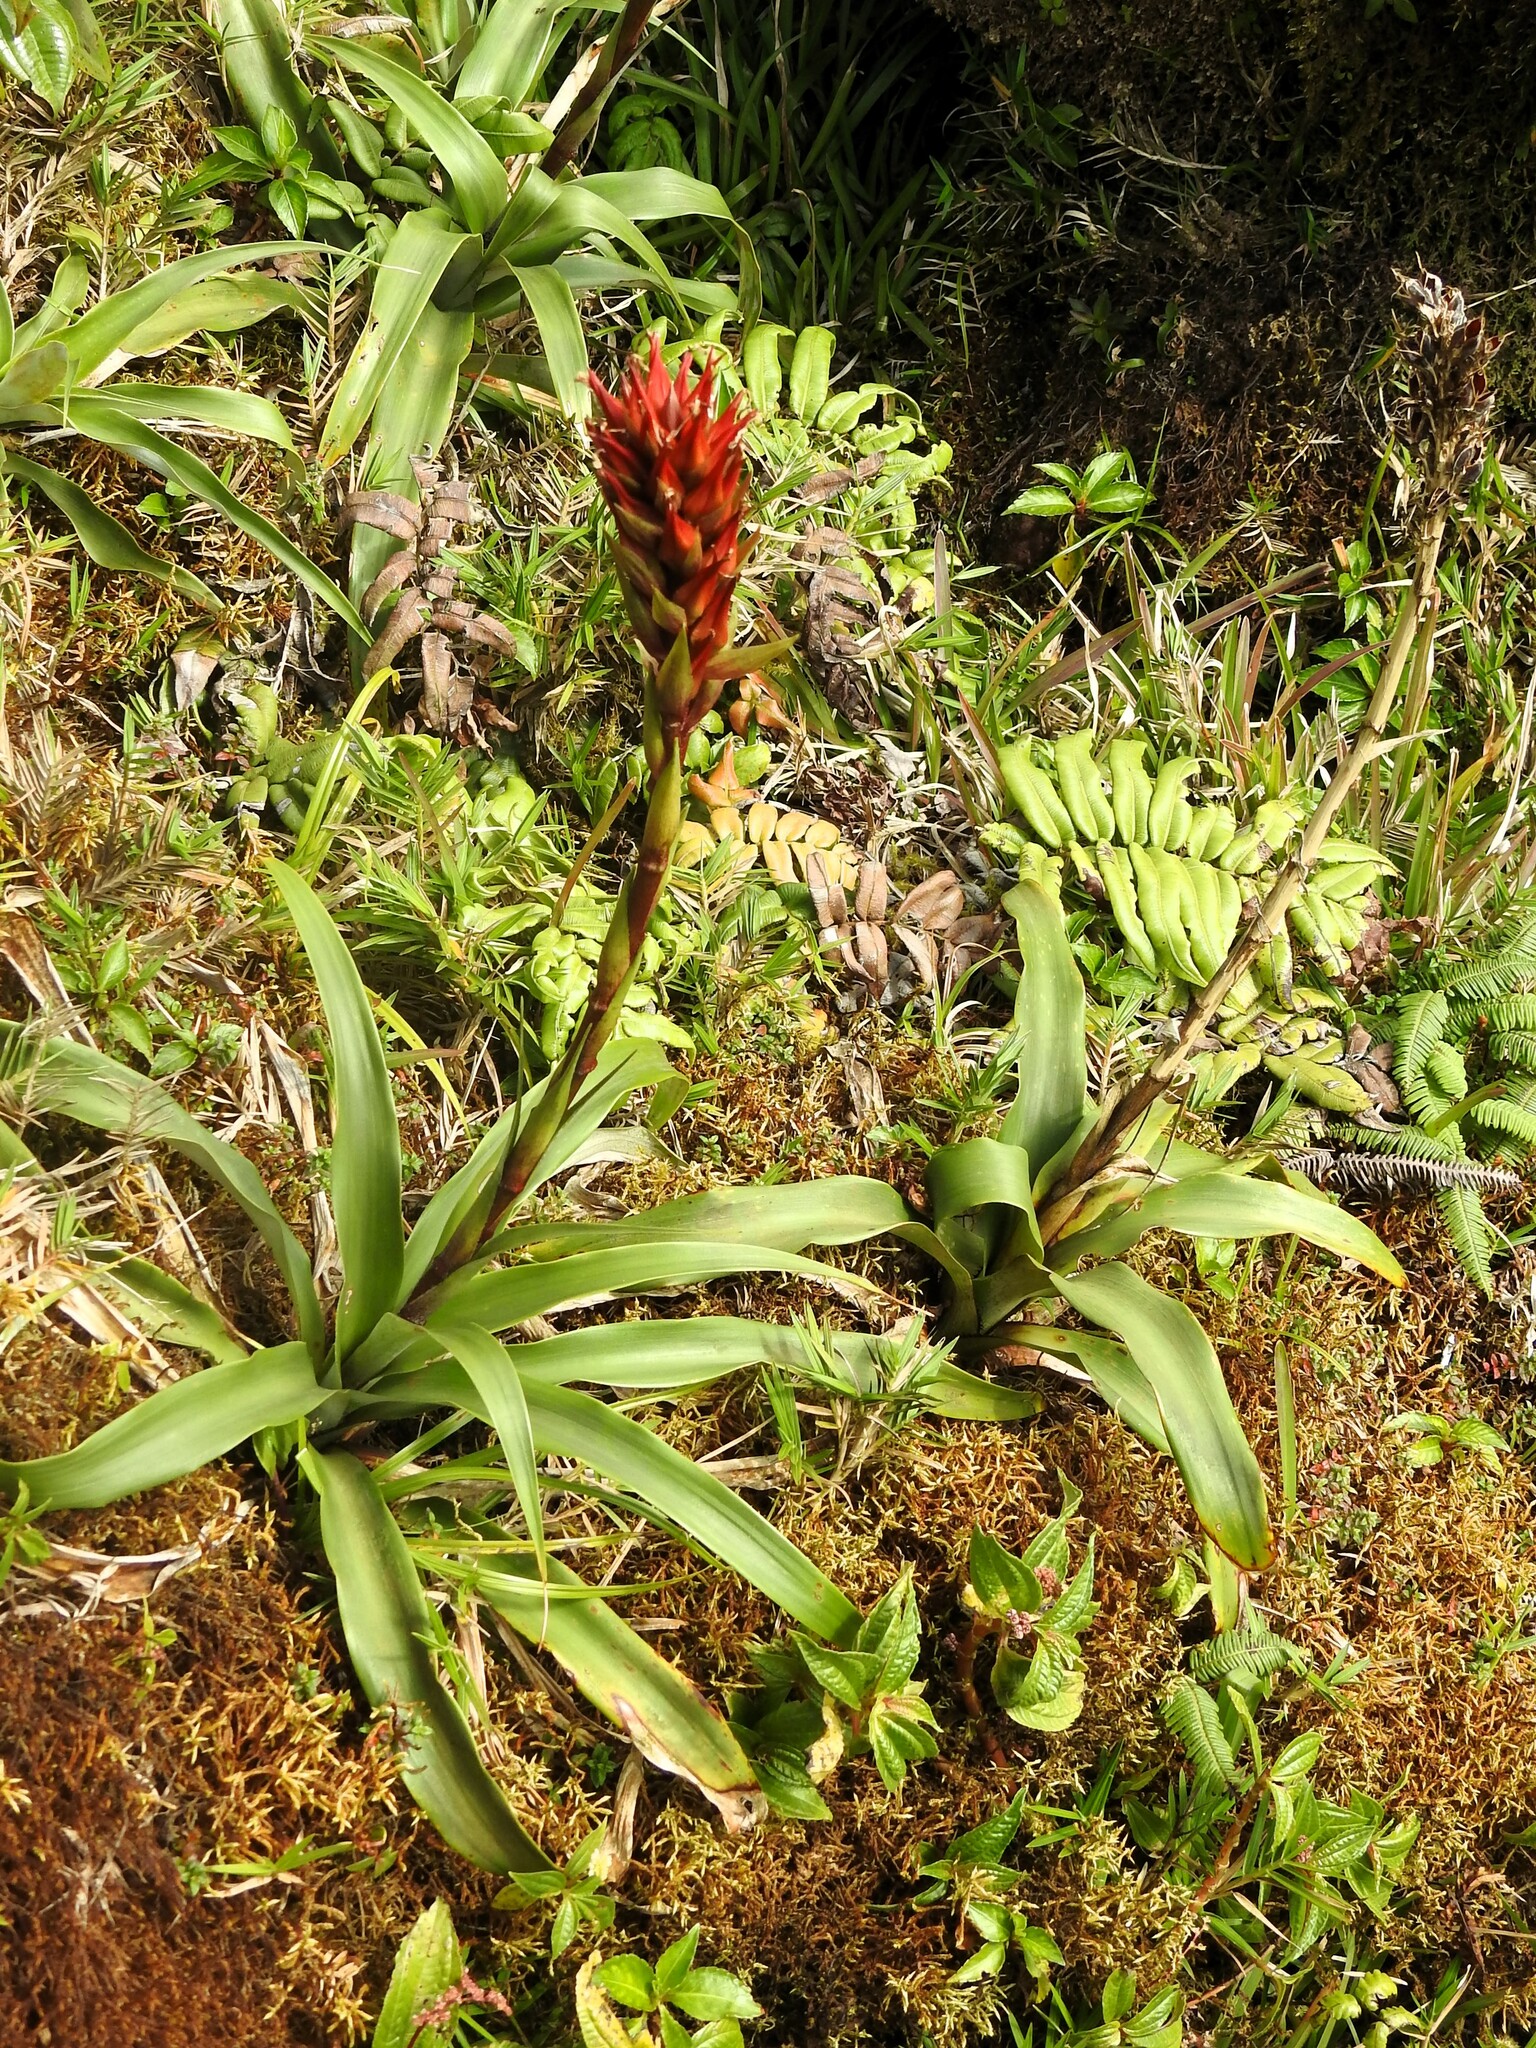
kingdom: Plantae
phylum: Tracheophyta
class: Liliopsida
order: Poales
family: Bromeliaceae
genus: Pitcairnia
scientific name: Pitcairnia bifrons
